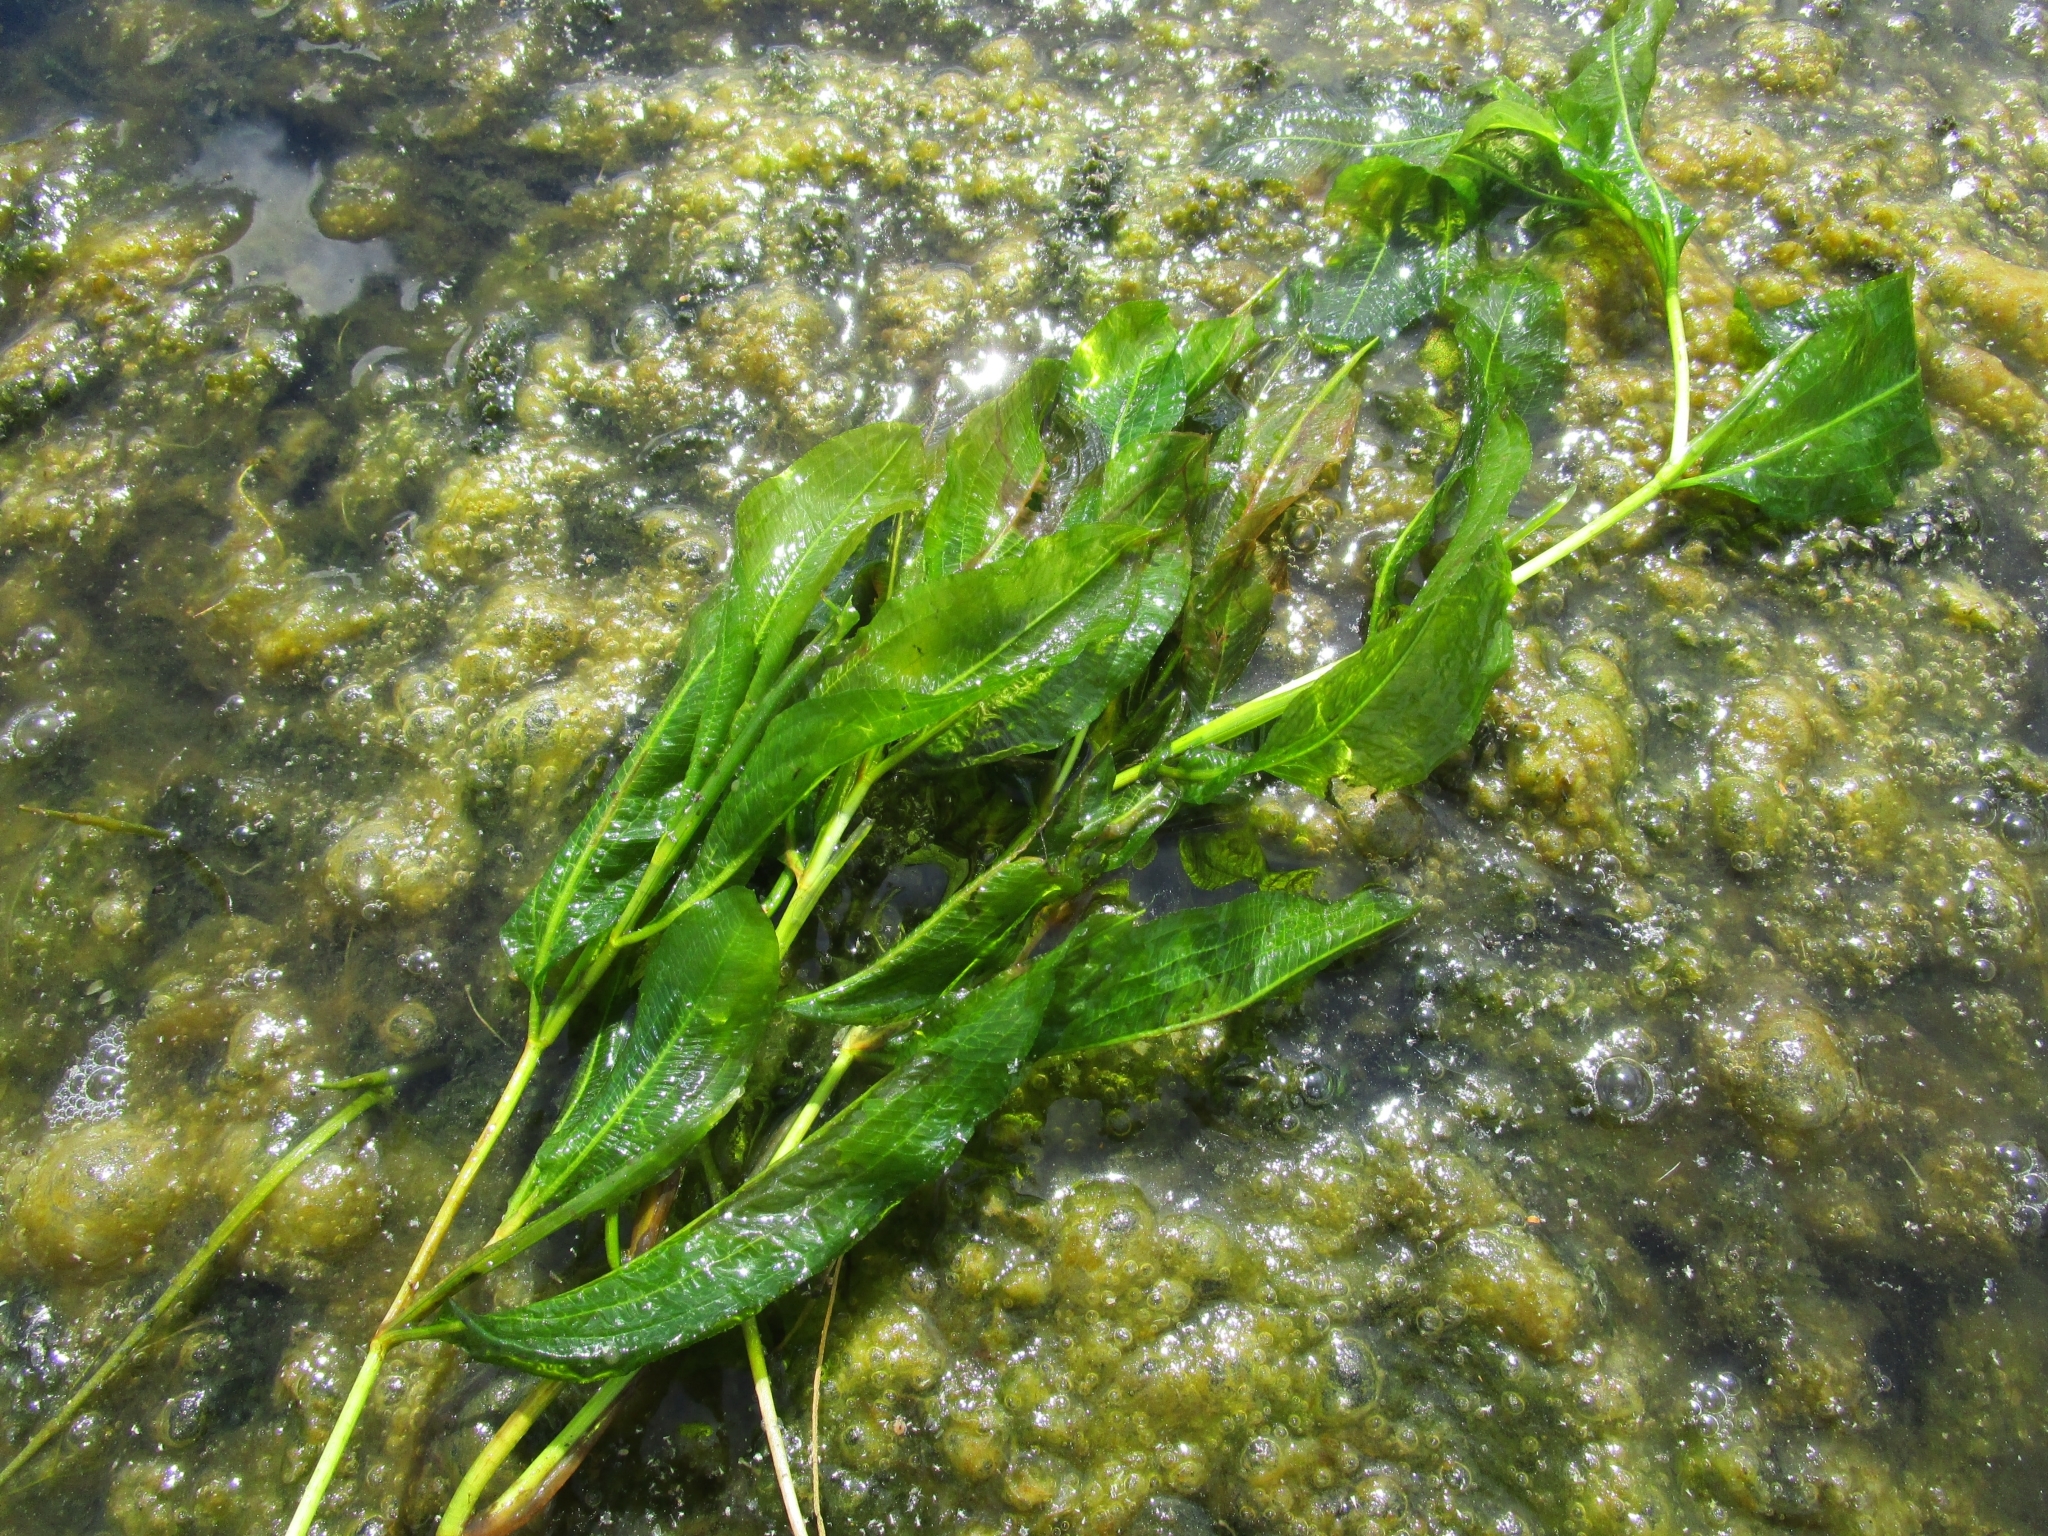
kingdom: Plantae
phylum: Tracheophyta
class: Liliopsida
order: Alismatales
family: Potamogetonaceae
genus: Potamogeton
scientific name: Potamogeton lucens
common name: Shining pondweed
